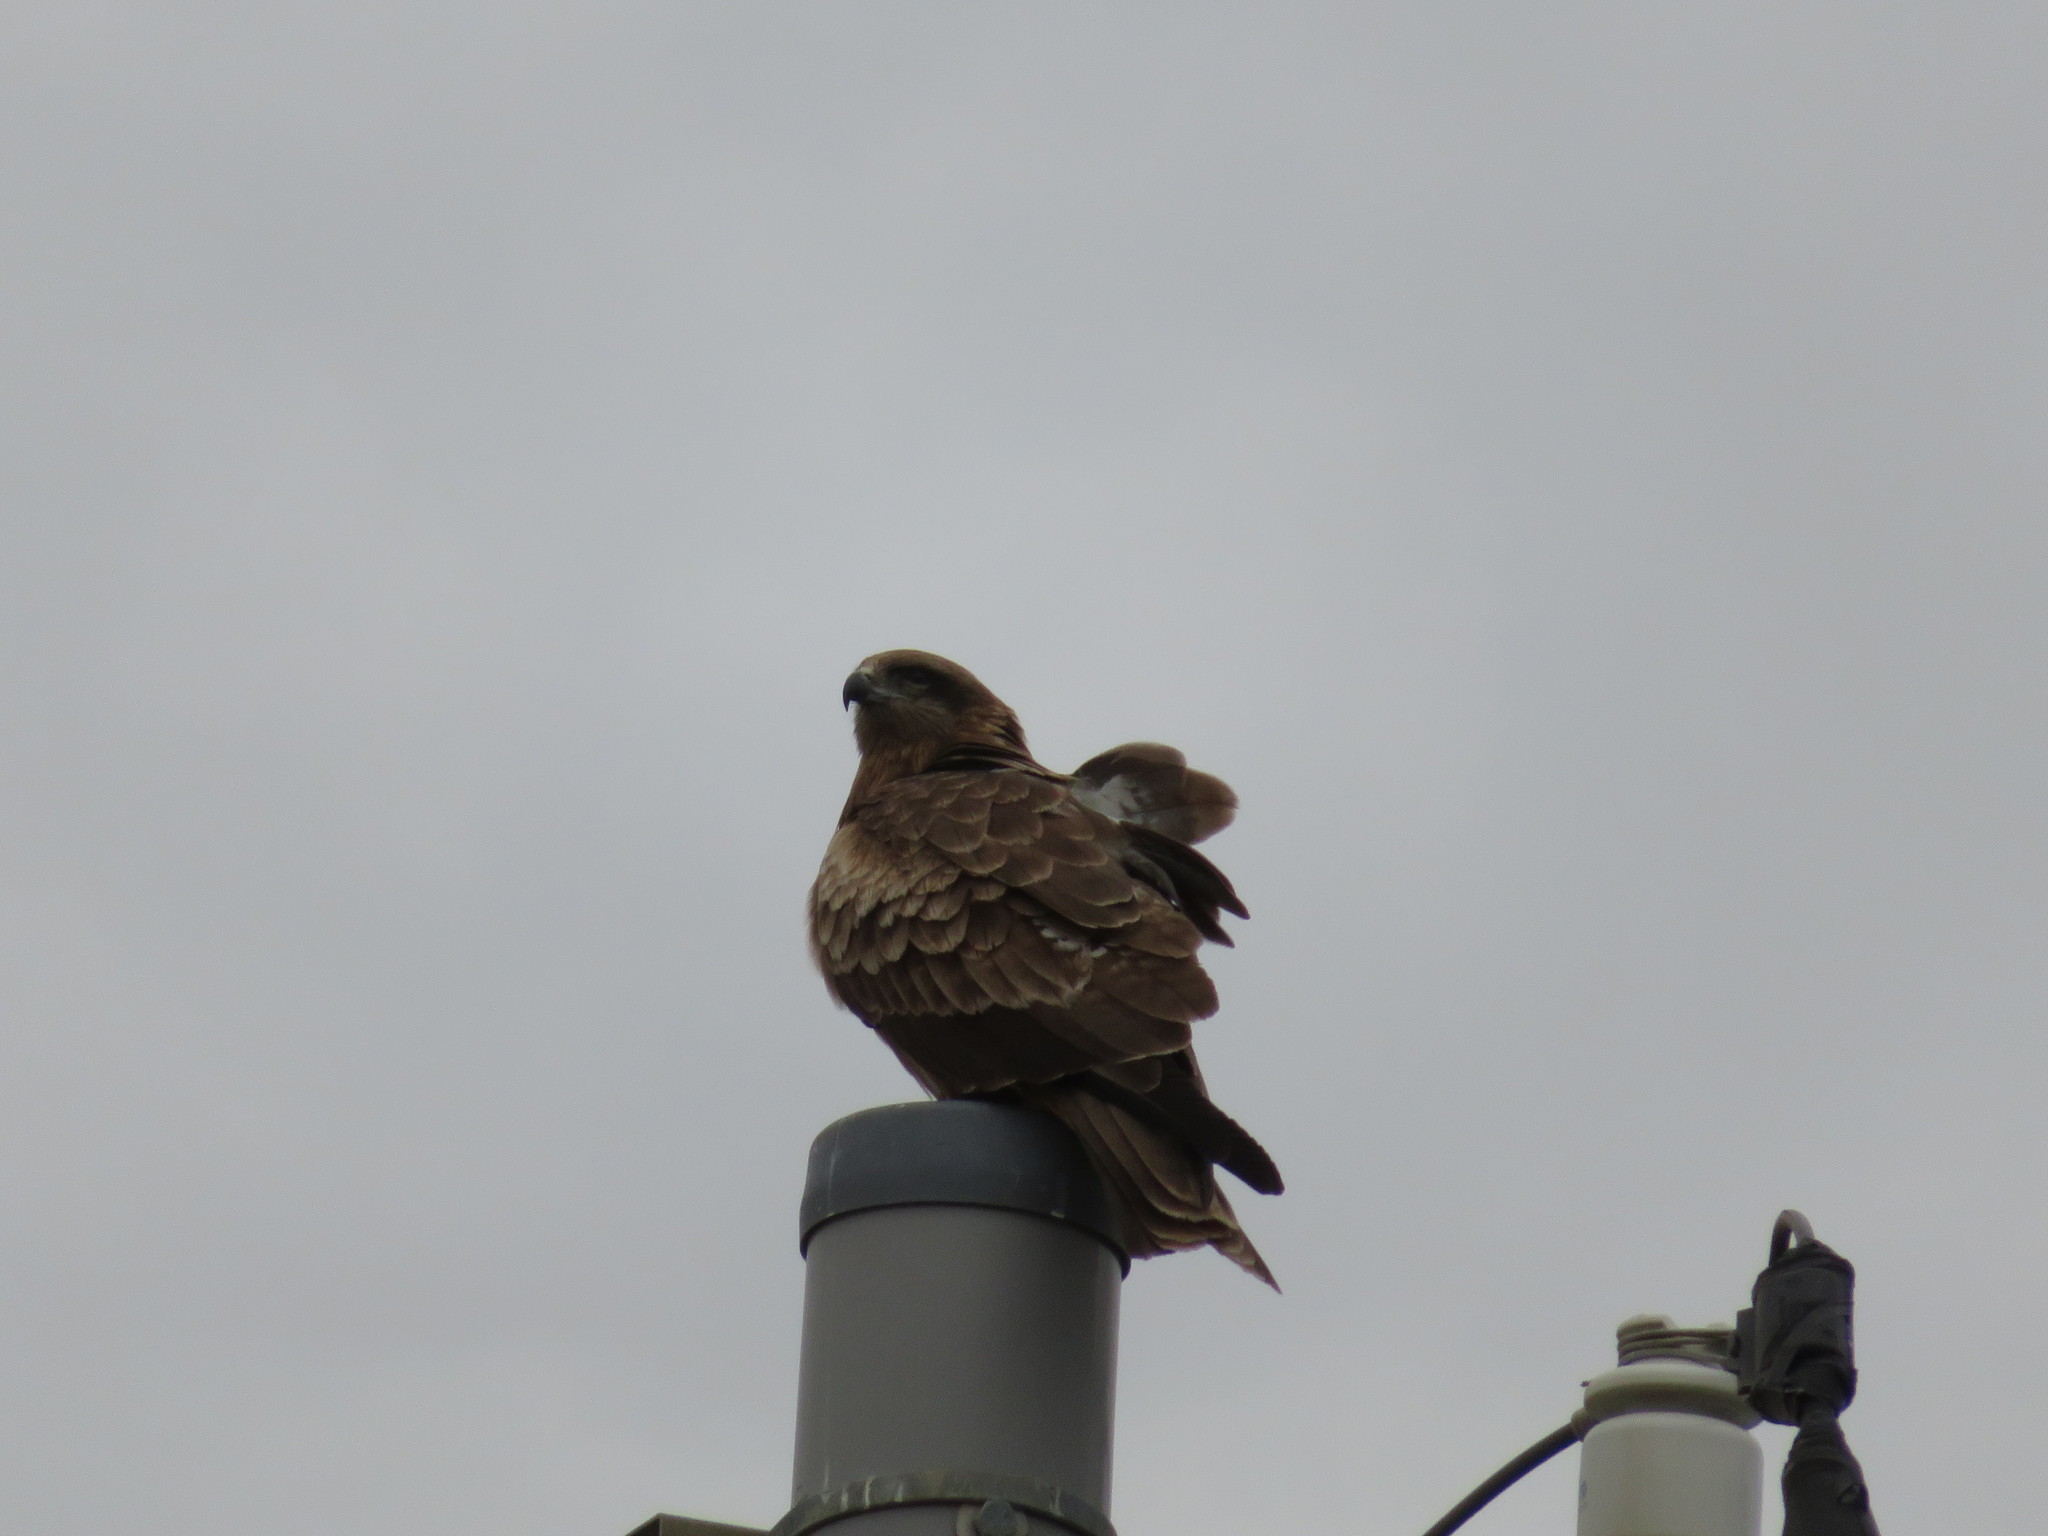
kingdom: Animalia
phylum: Chordata
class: Aves
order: Accipitriformes
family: Accipitridae
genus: Milvus
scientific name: Milvus migrans
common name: Black kite
